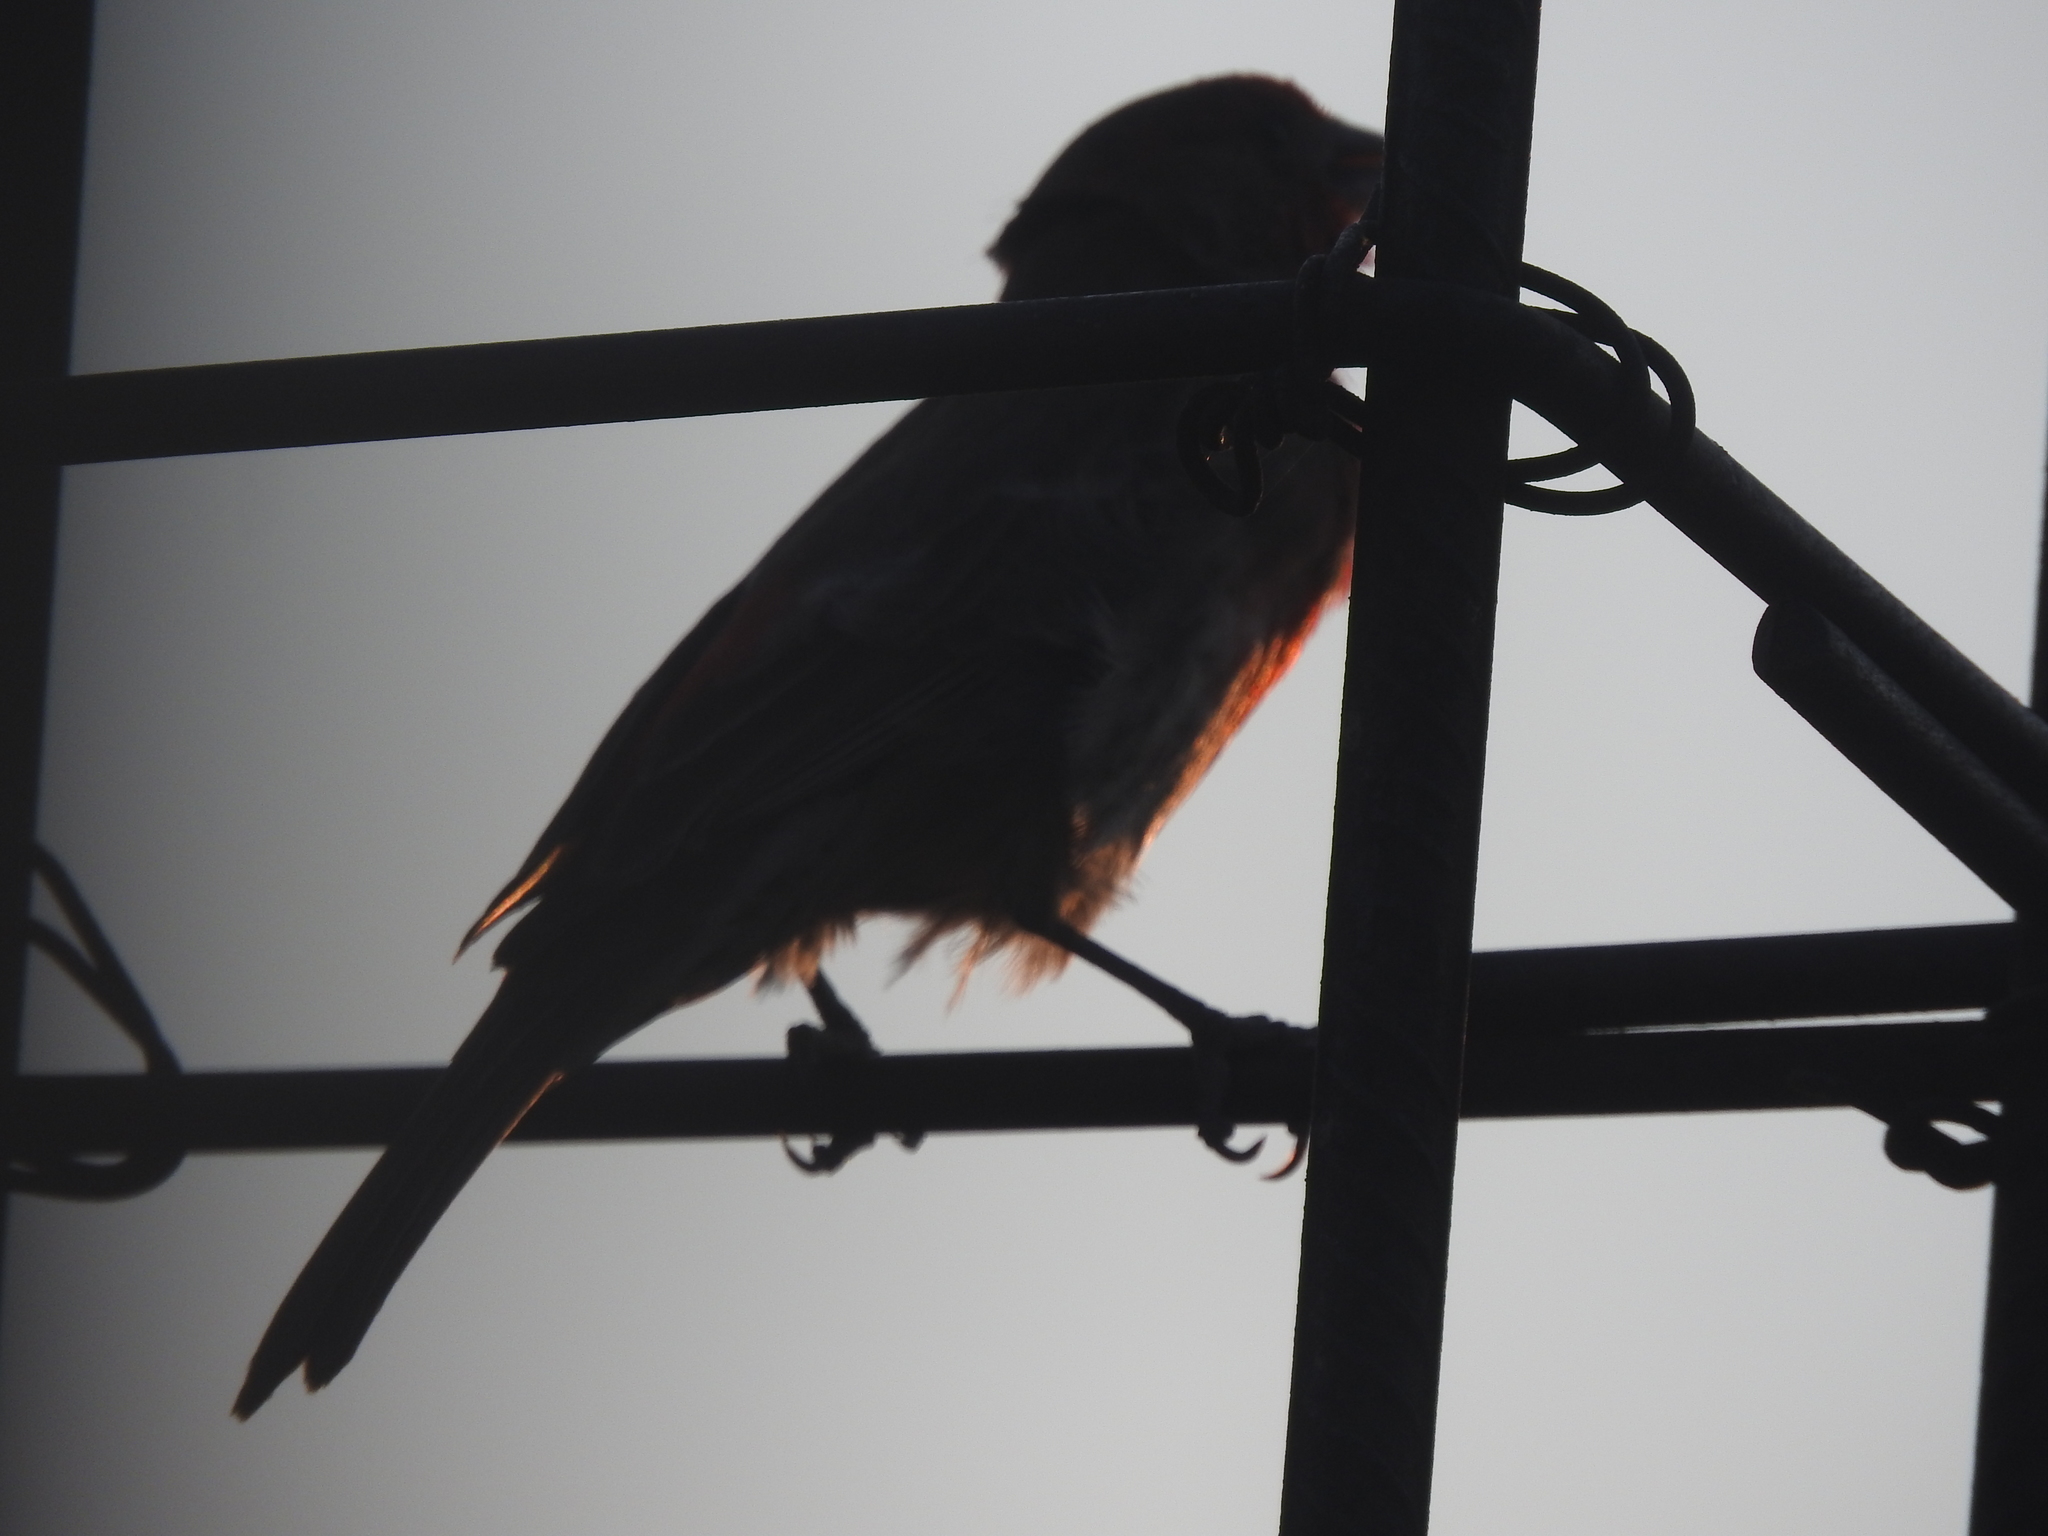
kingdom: Animalia
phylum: Chordata
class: Aves
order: Passeriformes
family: Fringillidae
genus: Haemorhous
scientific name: Haemorhous mexicanus
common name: House finch
